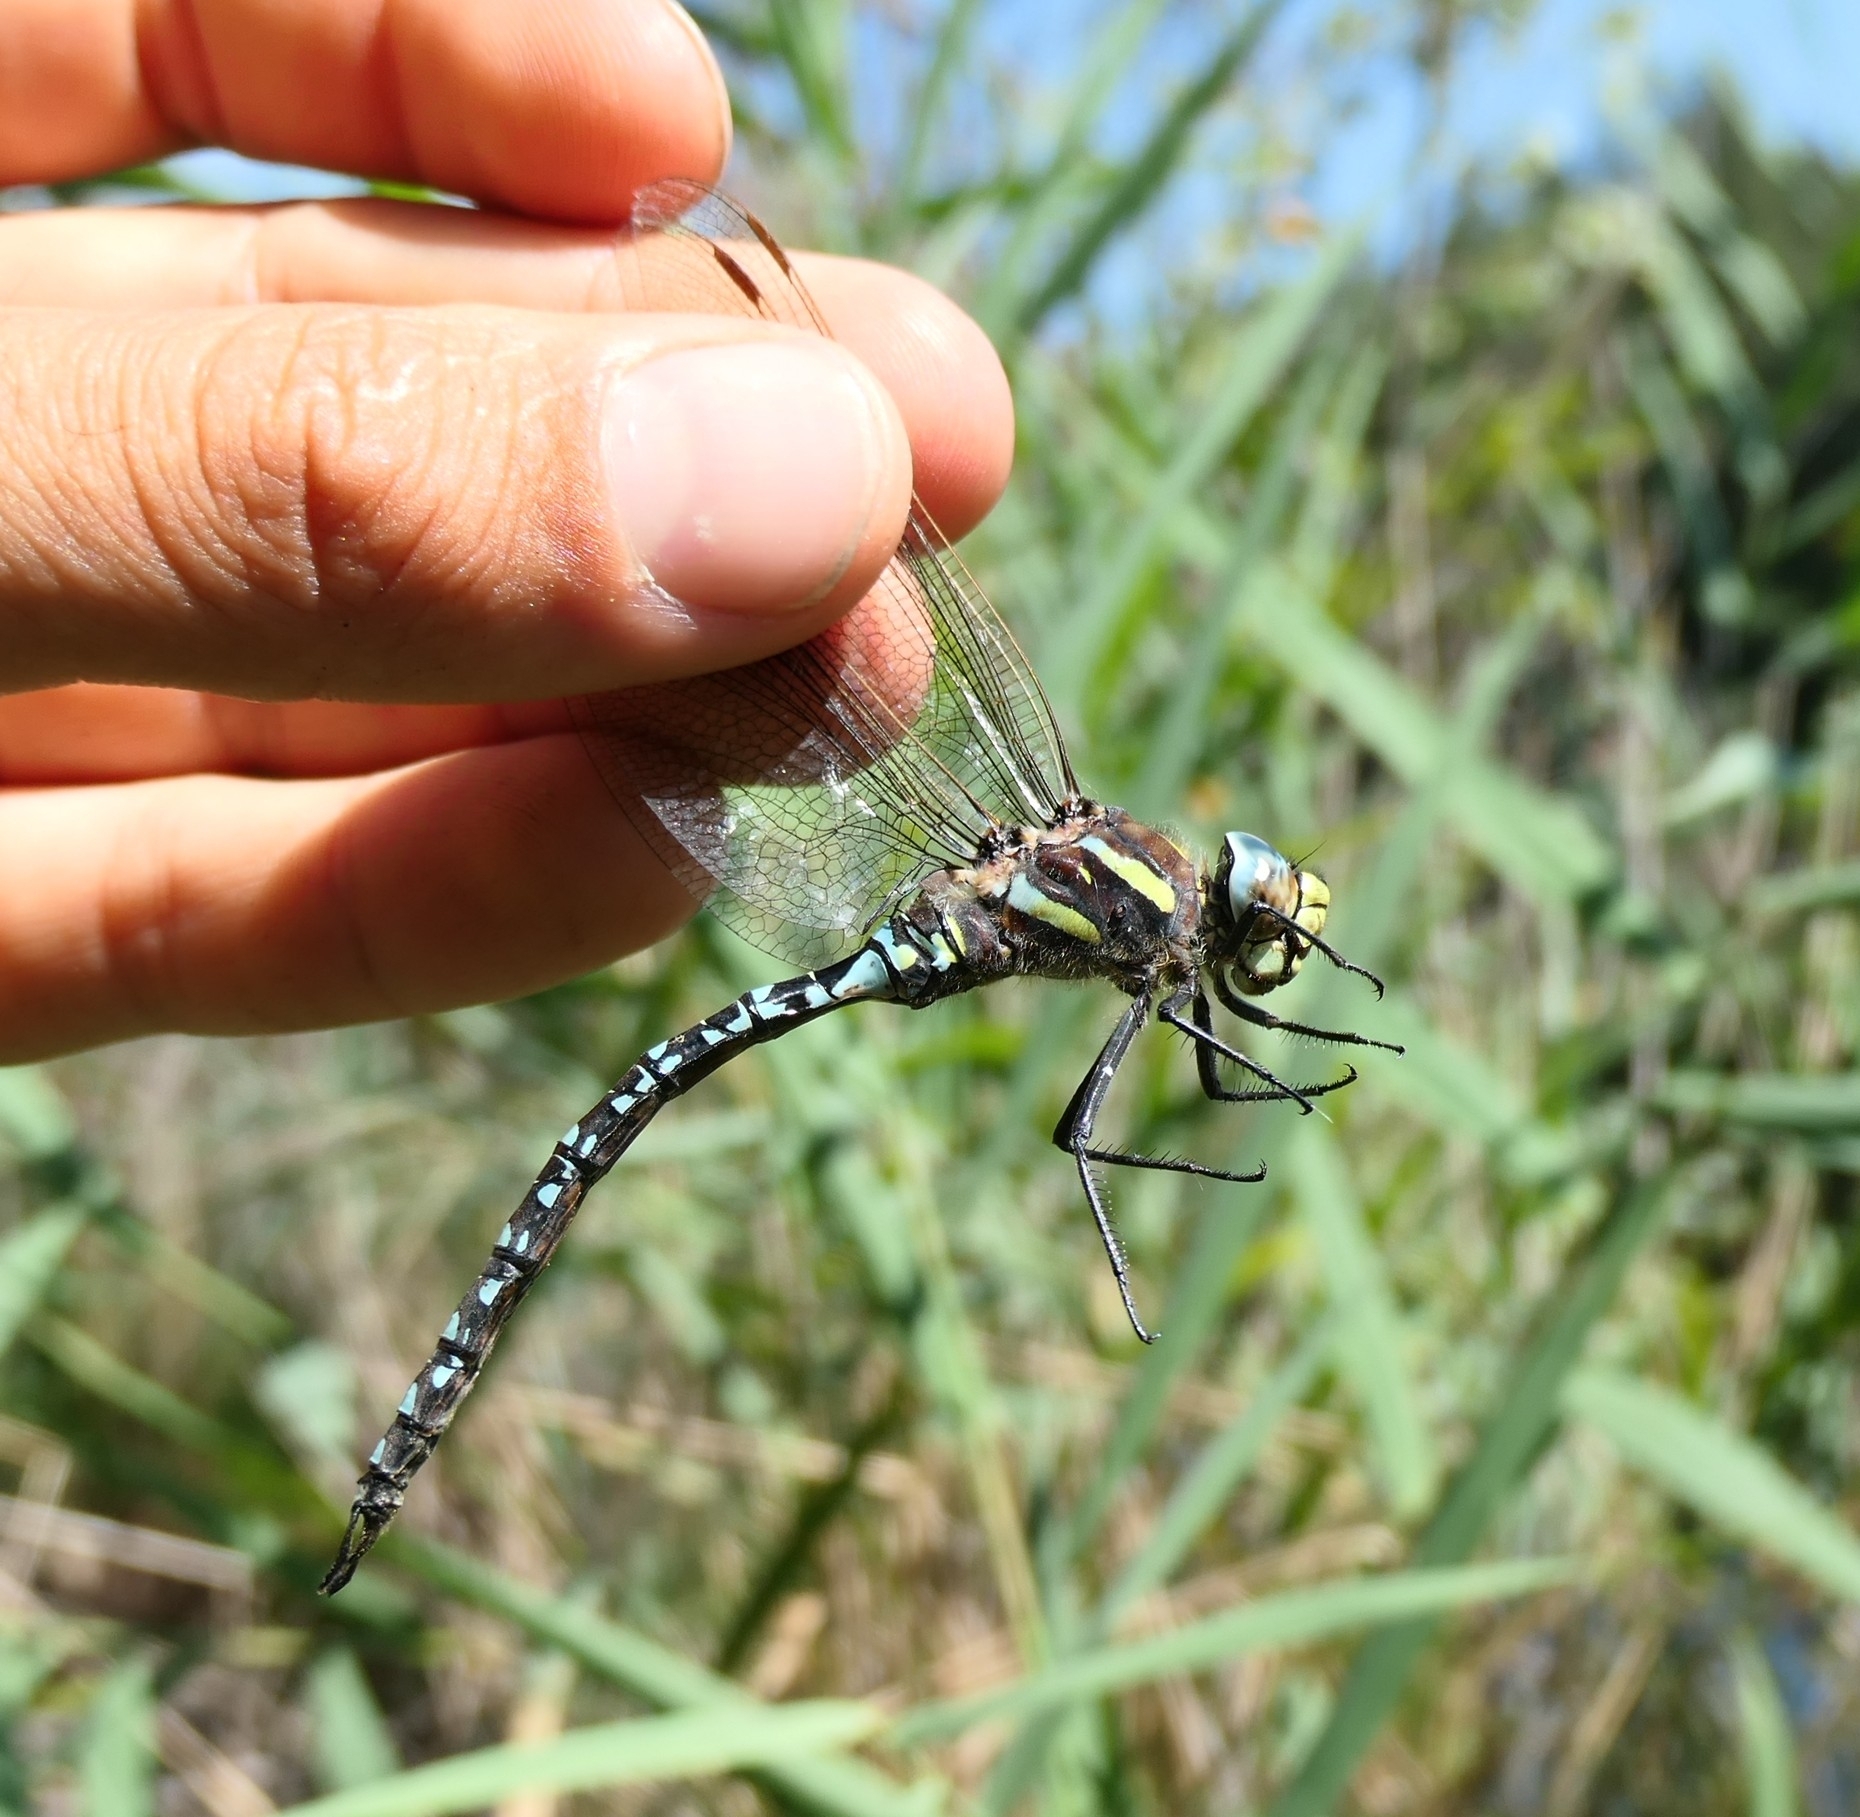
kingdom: Animalia
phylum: Arthropoda
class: Insecta
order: Odonata
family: Aeshnidae
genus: Aeshna
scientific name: Aeshna juncea
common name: Moorland hawker
